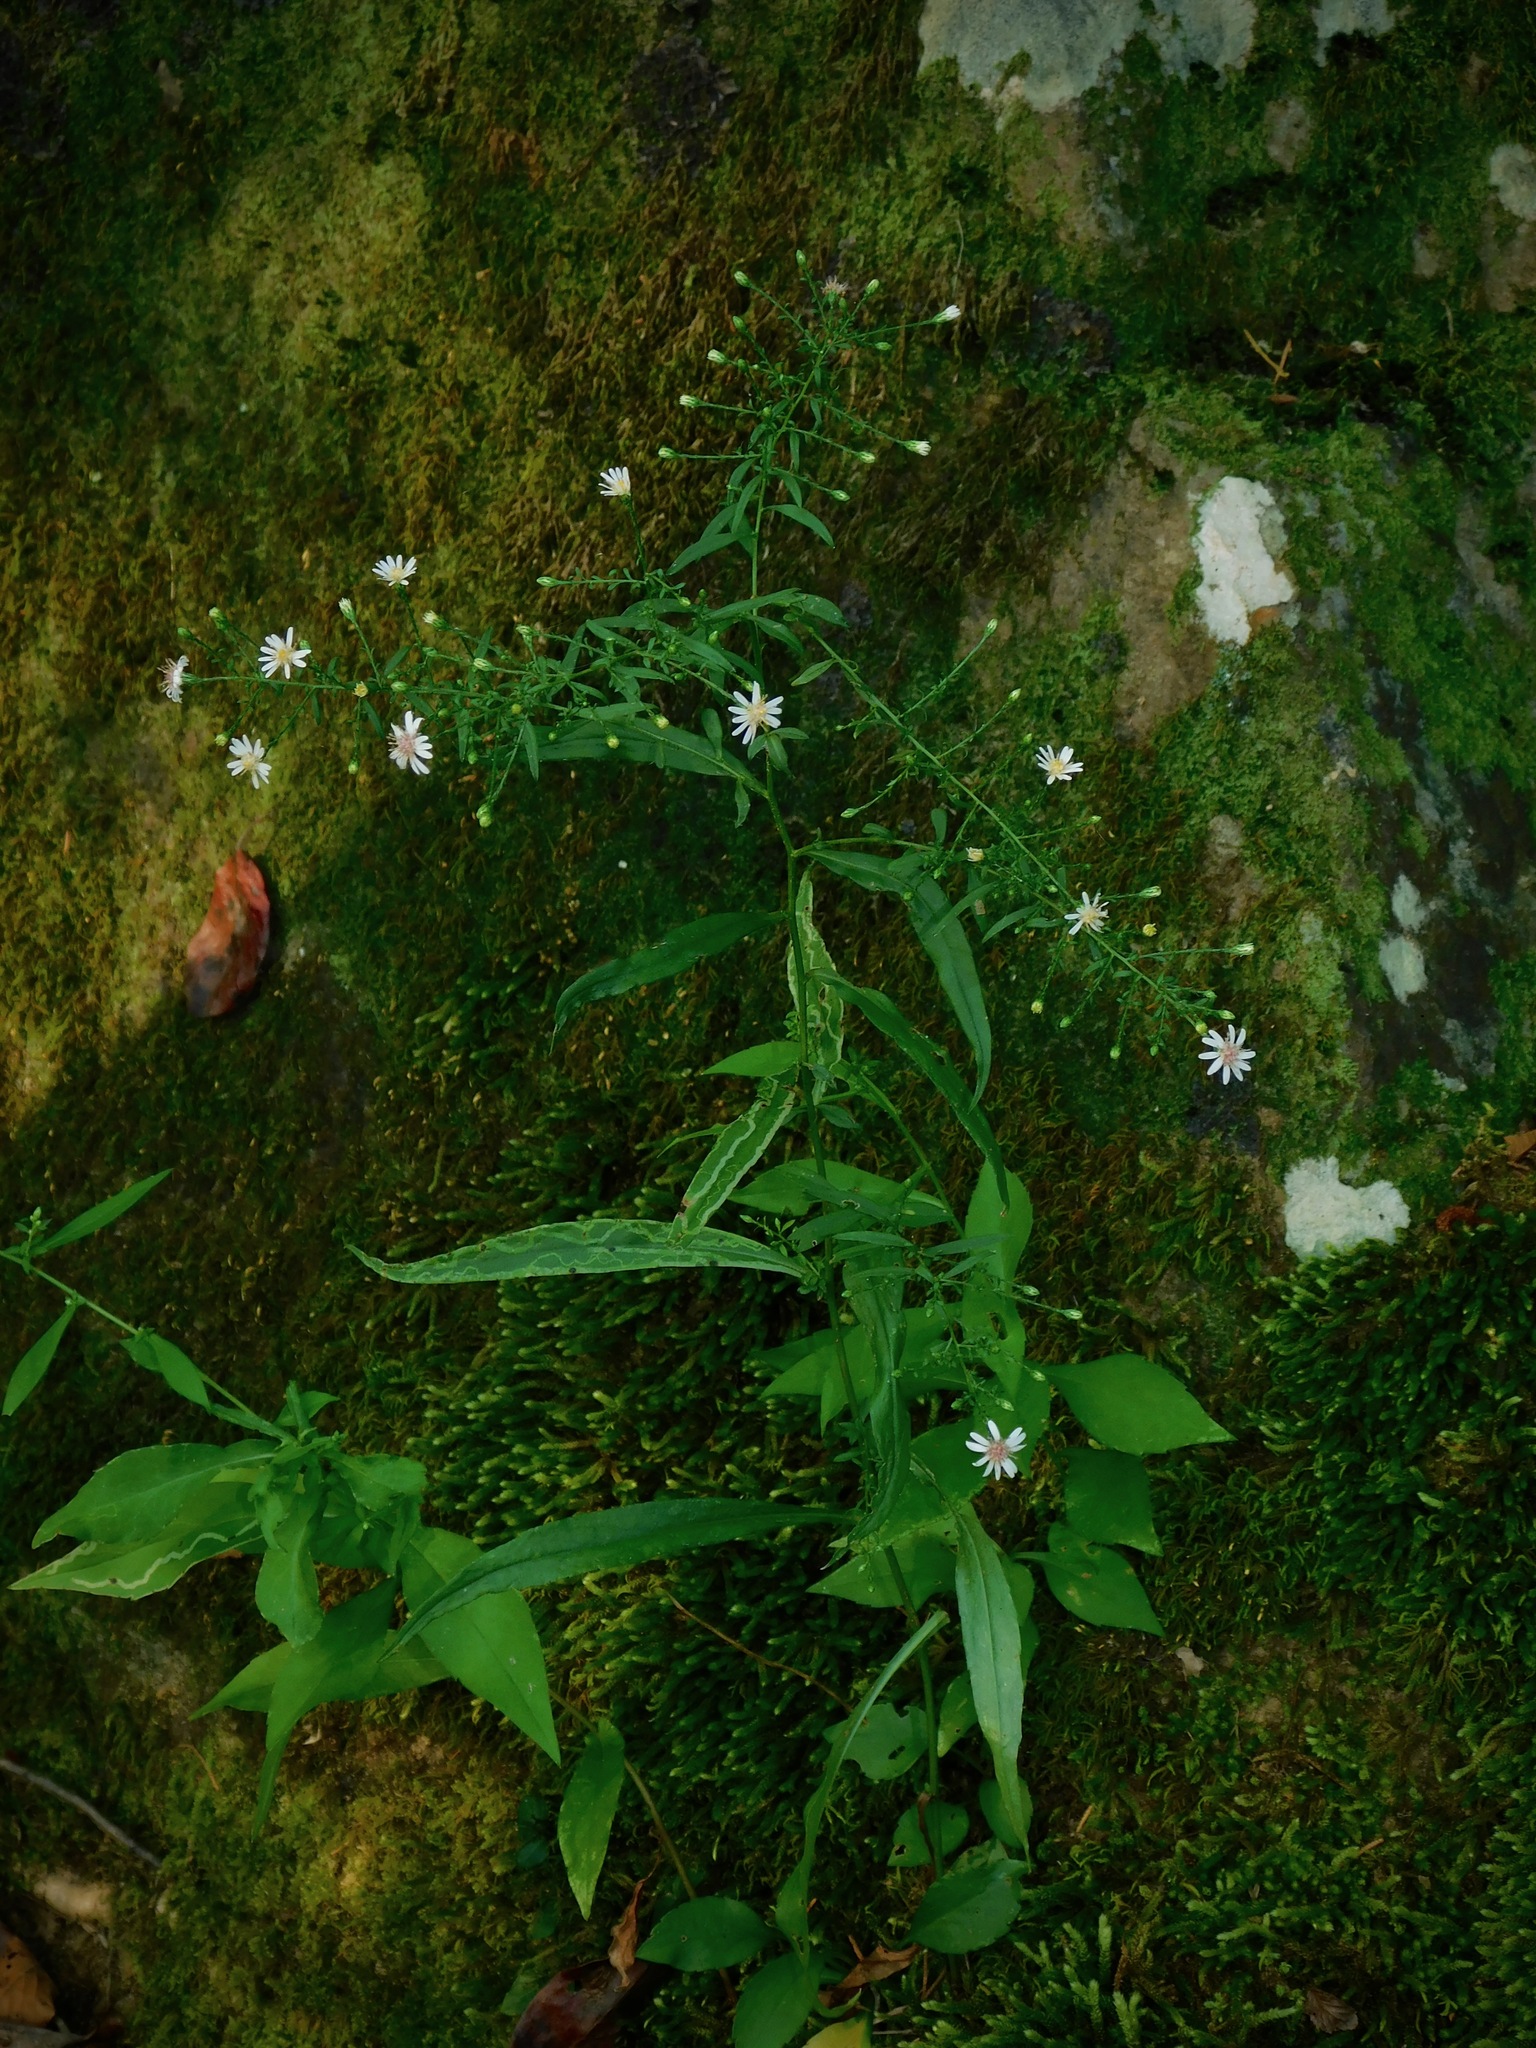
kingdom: Plantae
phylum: Tracheophyta
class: Magnoliopsida
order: Asterales
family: Asteraceae
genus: Symphyotrichum
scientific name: Symphyotrichum lateriflorum
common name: Calico aster
